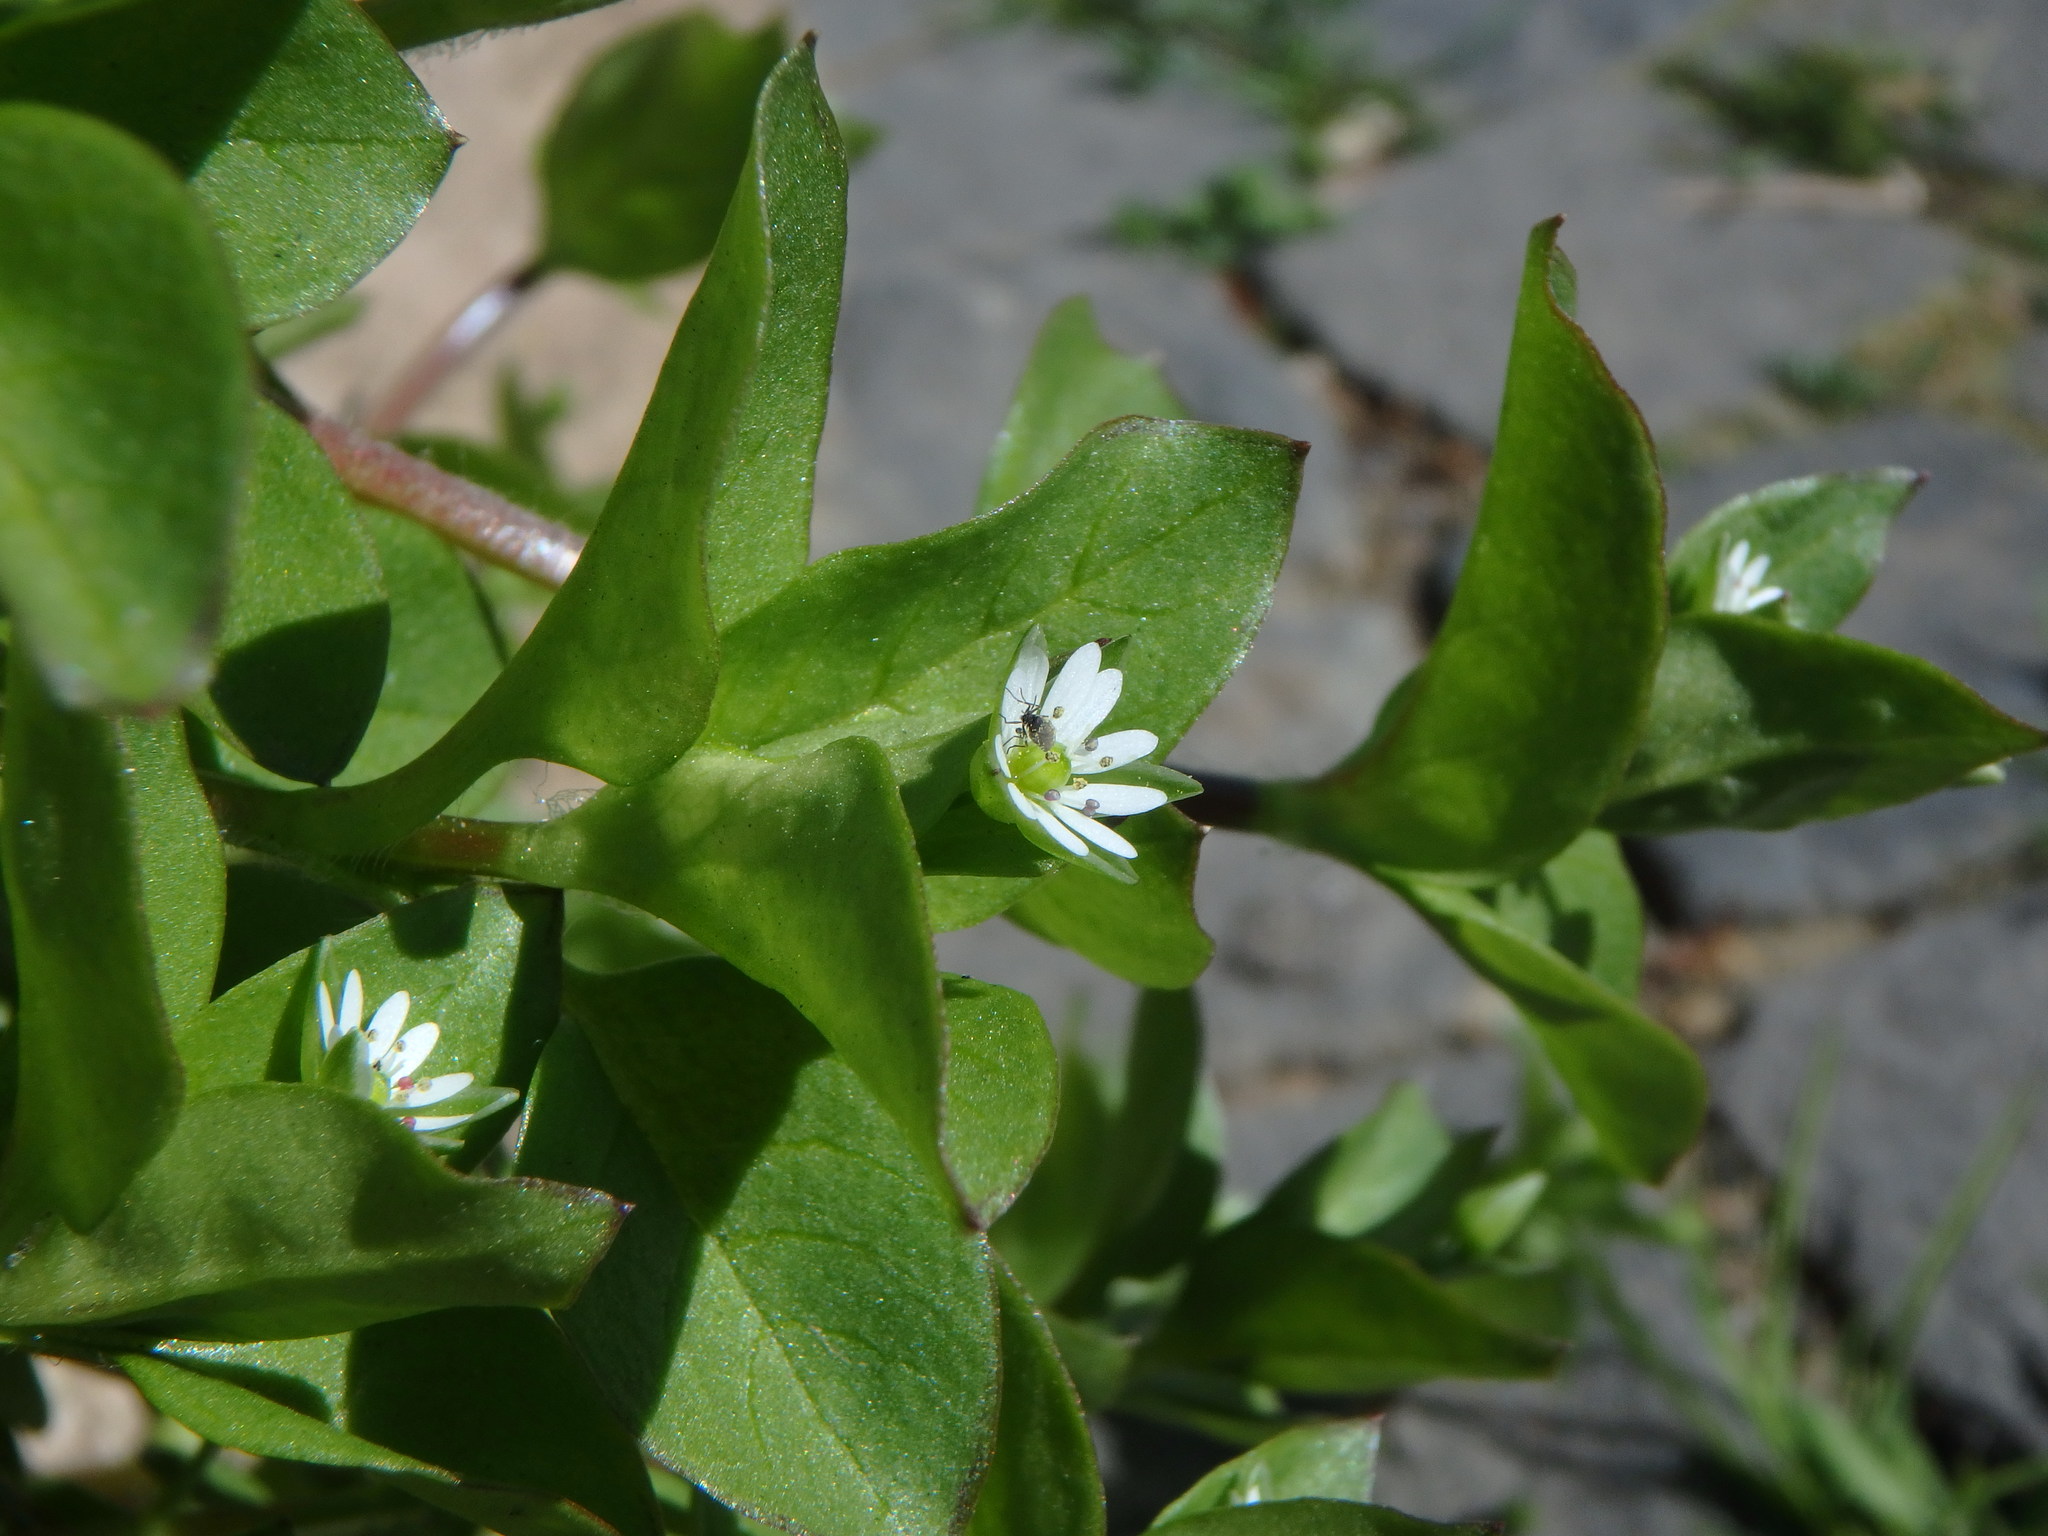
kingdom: Plantae
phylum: Tracheophyta
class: Magnoliopsida
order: Caryophyllales
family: Caryophyllaceae
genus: Stellaria
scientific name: Stellaria media
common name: Common chickweed
